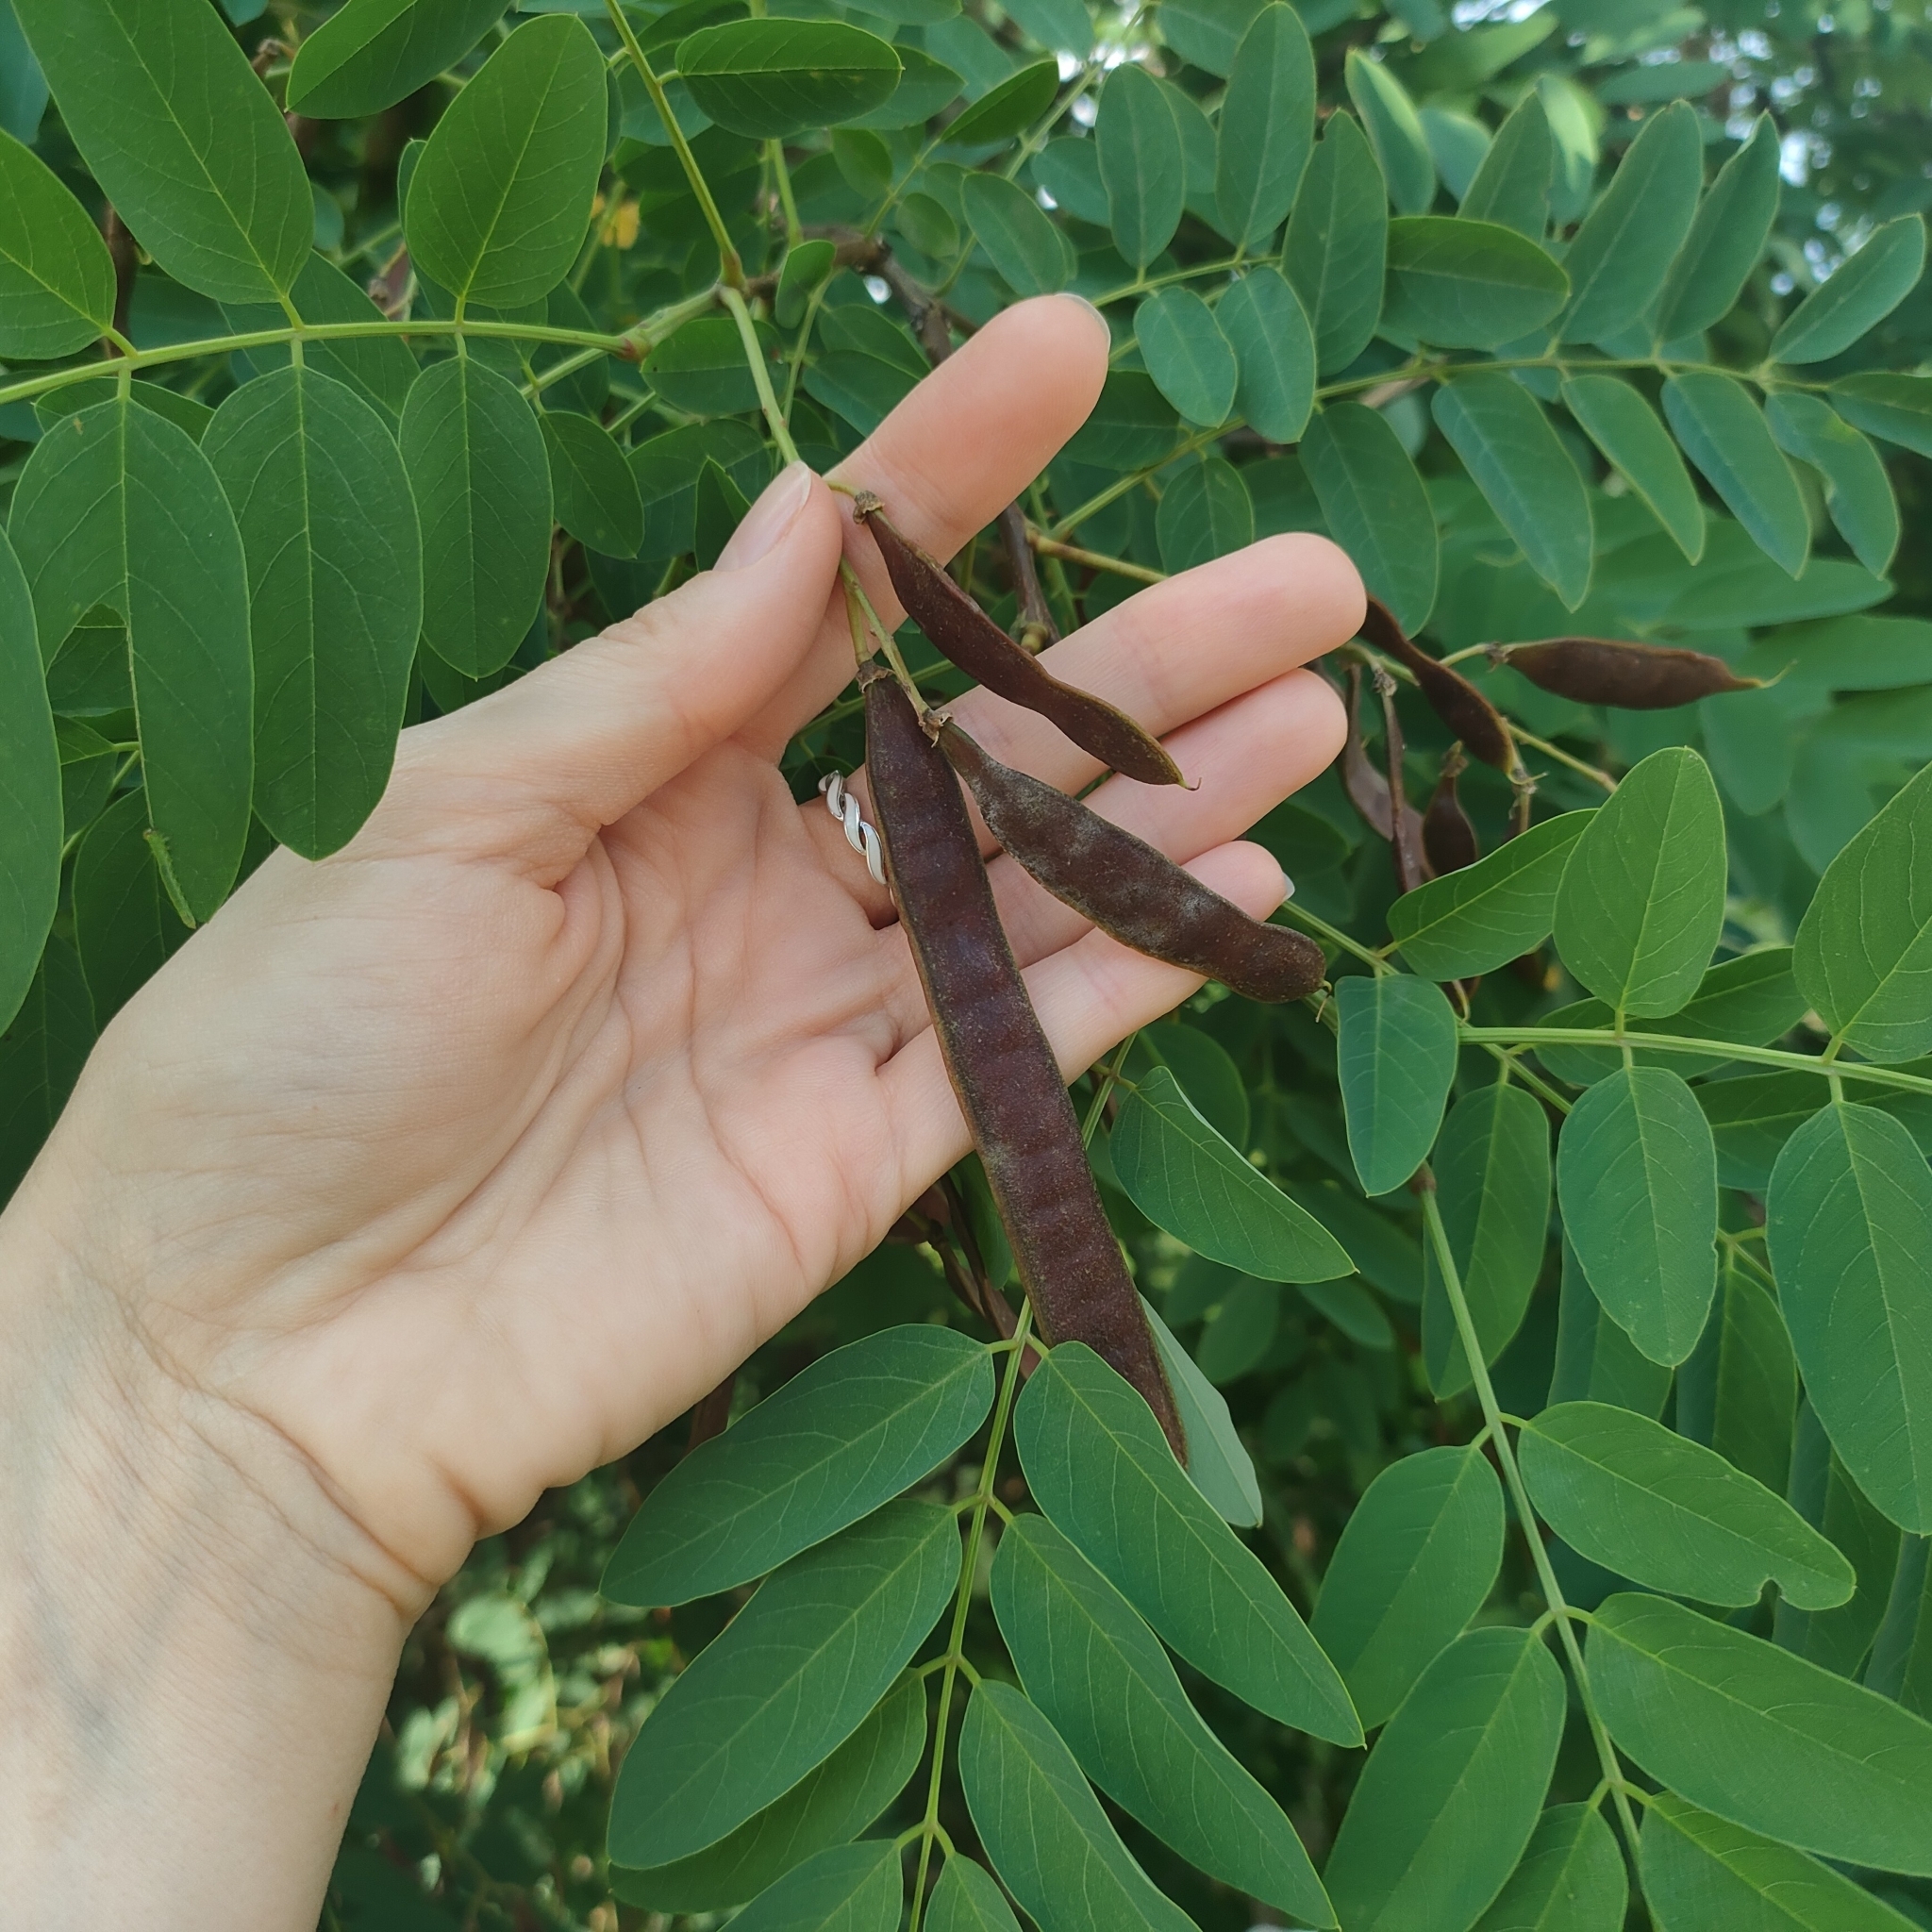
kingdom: Plantae
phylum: Tracheophyta
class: Magnoliopsida
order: Fabales
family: Fabaceae
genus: Robinia
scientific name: Robinia pseudoacacia
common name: Black locust
